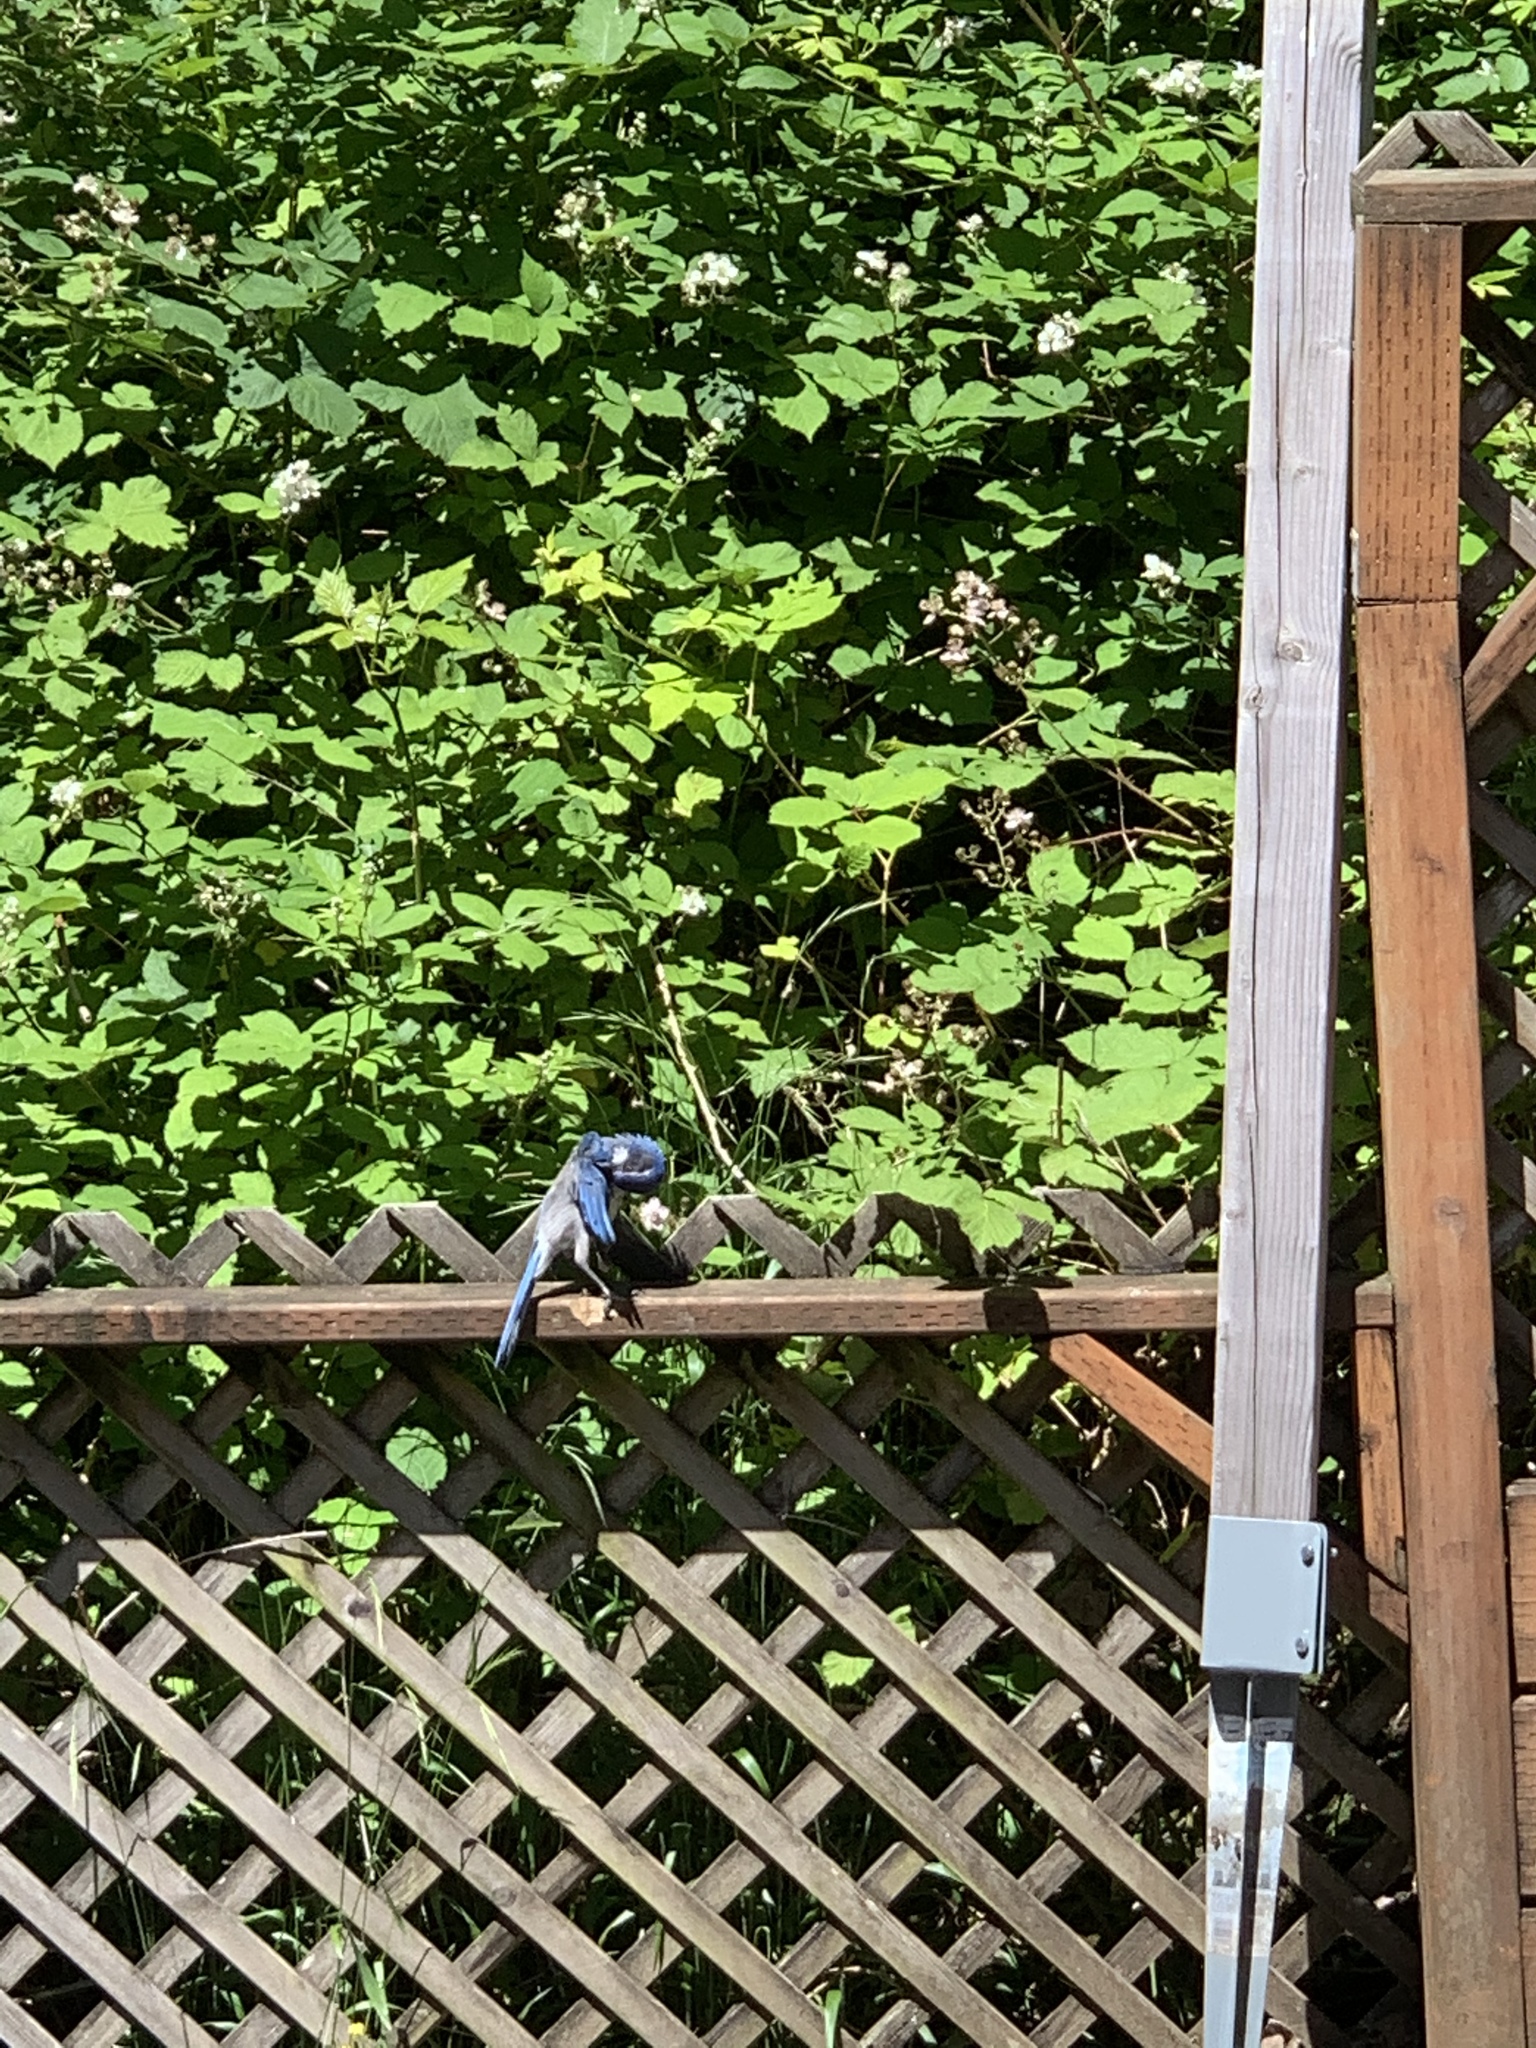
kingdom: Animalia
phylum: Chordata
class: Aves
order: Passeriformes
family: Corvidae
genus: Aphelocoma
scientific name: Aphelocoma californica
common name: California scrub-jay
